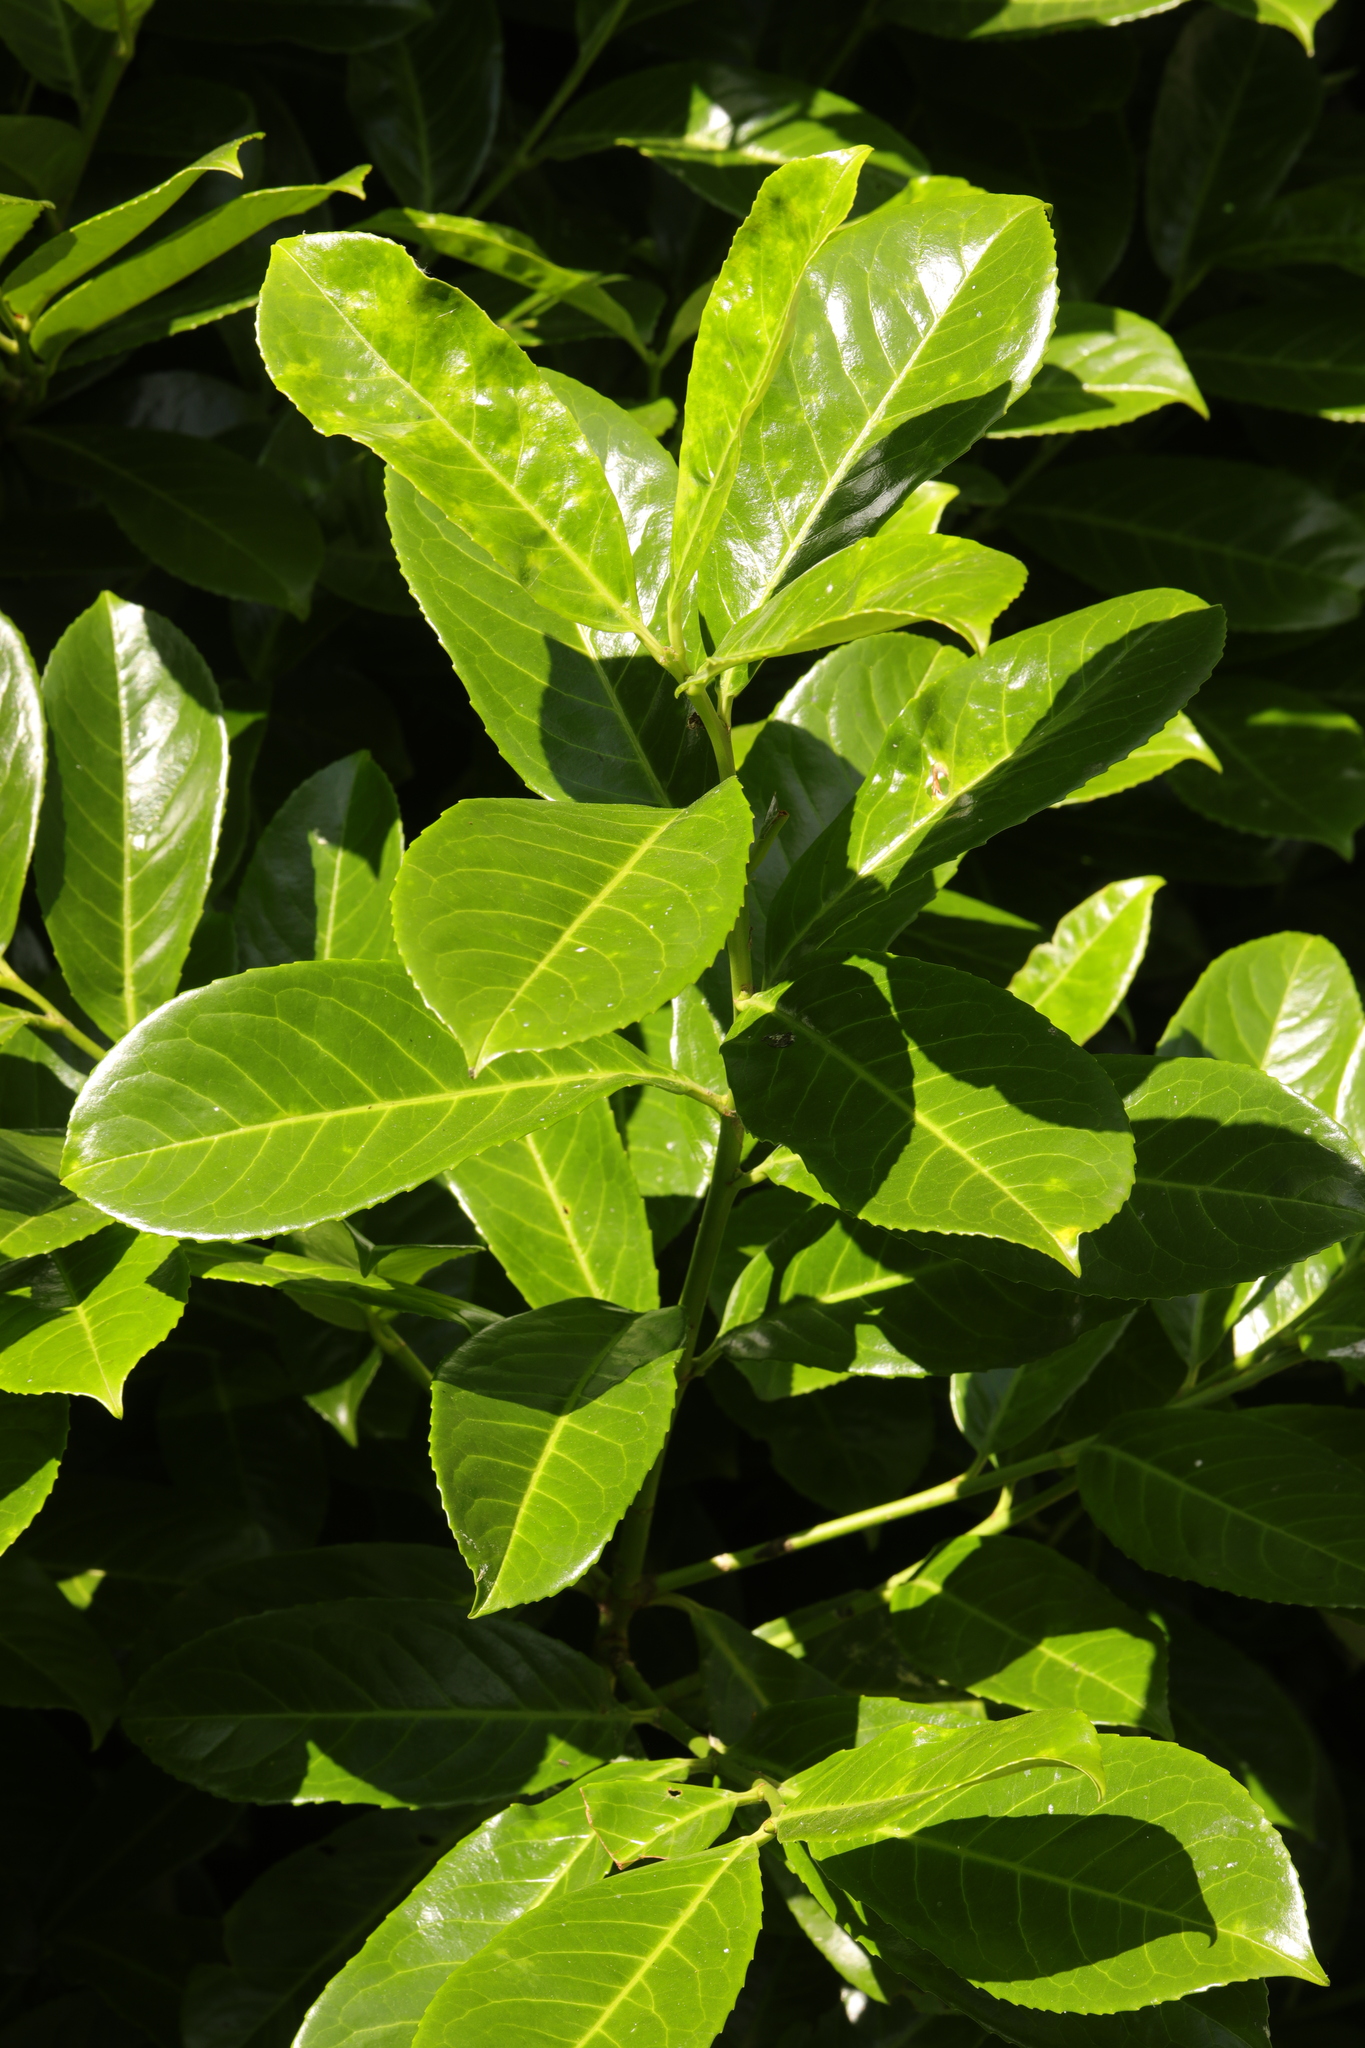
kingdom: Plantae
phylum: Tracheophyta
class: Magnoliopsida
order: Rosales
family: Rosaceae
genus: Prunus
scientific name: Prunus laurocerasus
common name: Cherry laurel
